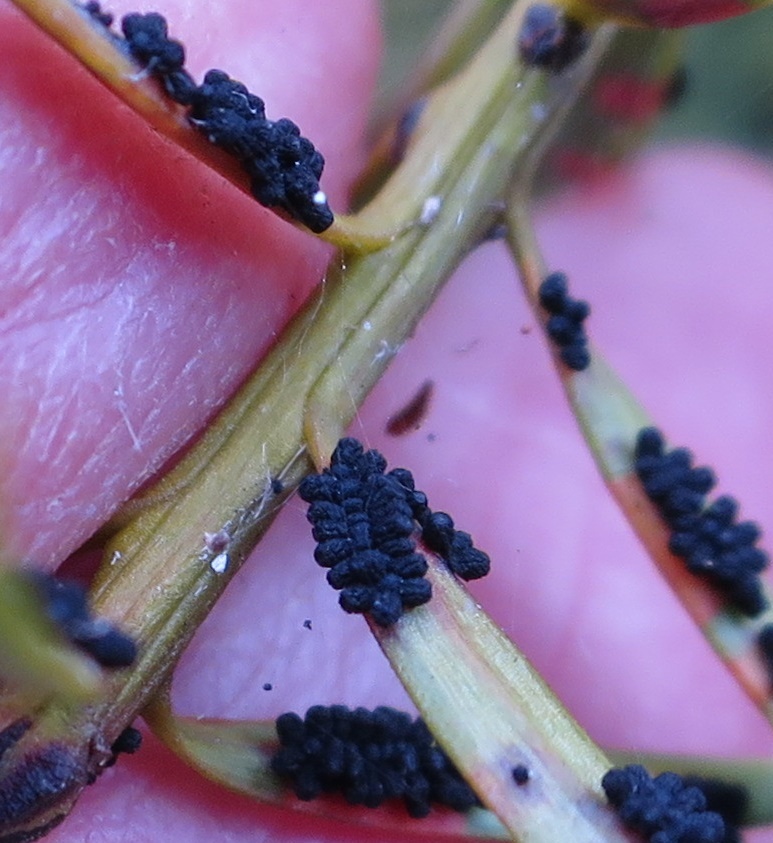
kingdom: Fungi
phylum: Ascomycota
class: Eurotiomycetes
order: Coryneliales
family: Coryneliaceae
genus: Corynelia
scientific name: Corynelia tropica
